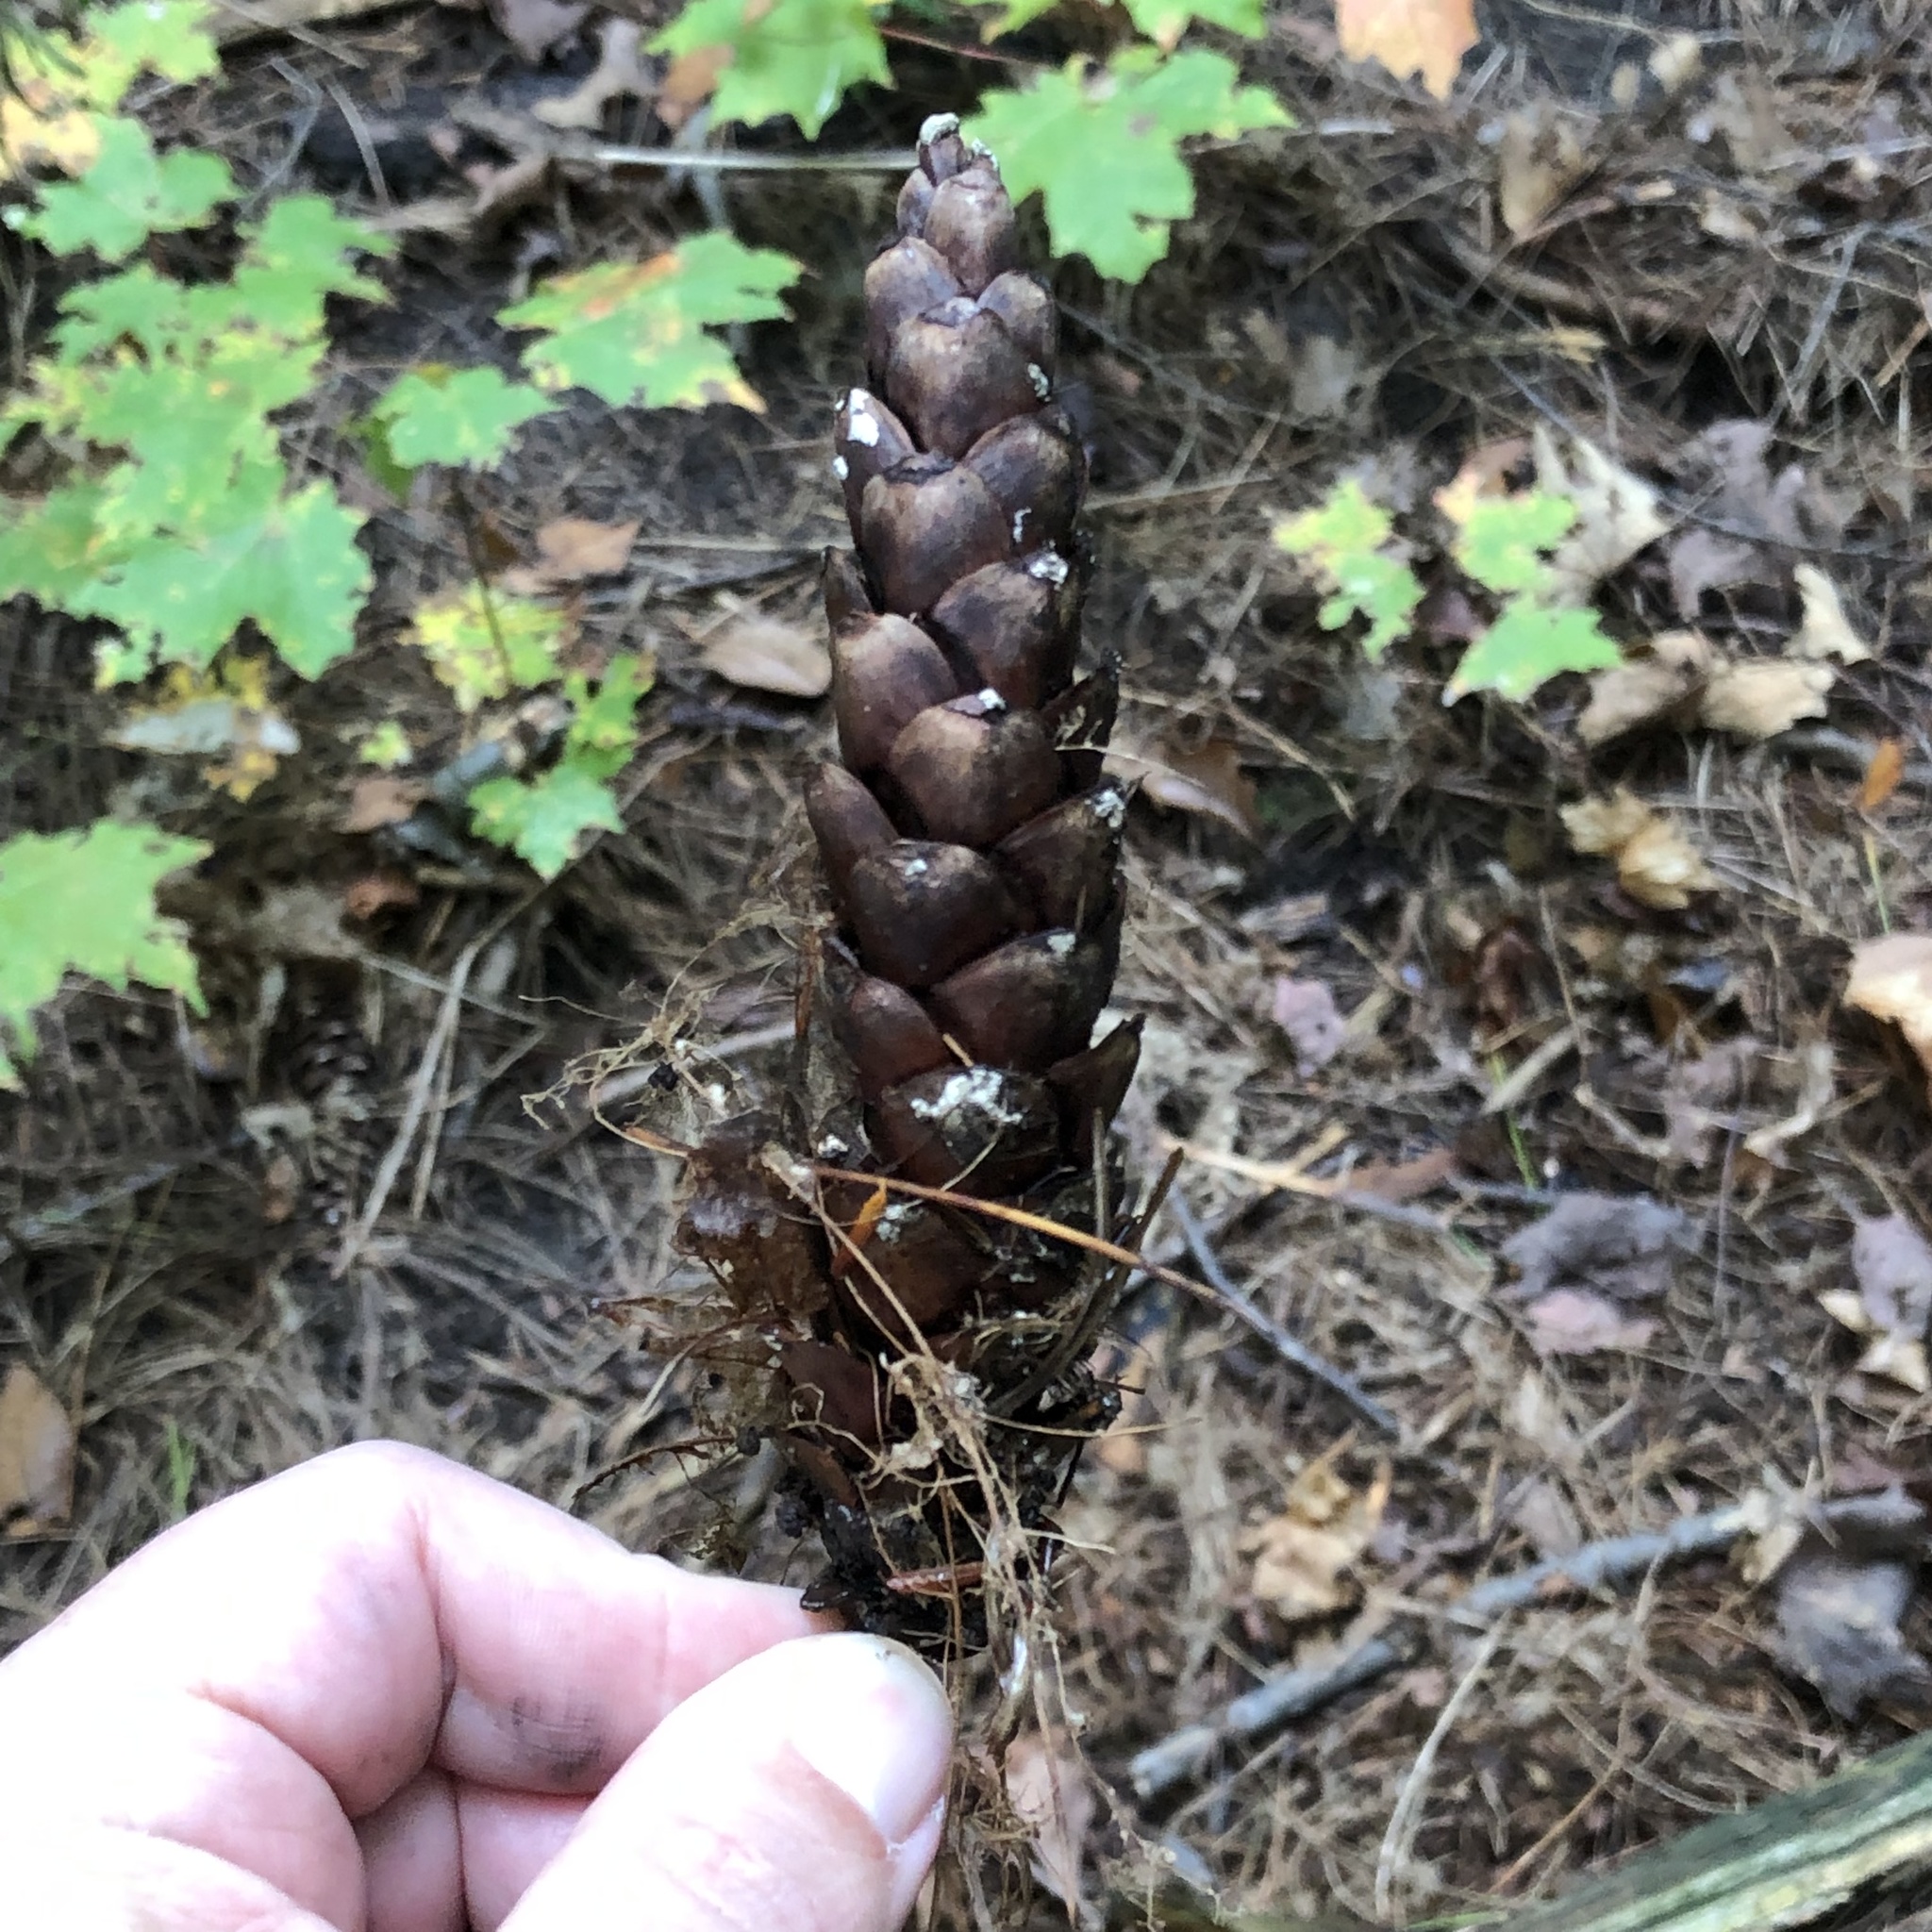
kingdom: Plantae
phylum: Tracheophyta
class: Pinopsida
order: Pinales
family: Pinaceae
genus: Pinus
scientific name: Pinus strobus
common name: Weymouth pine
